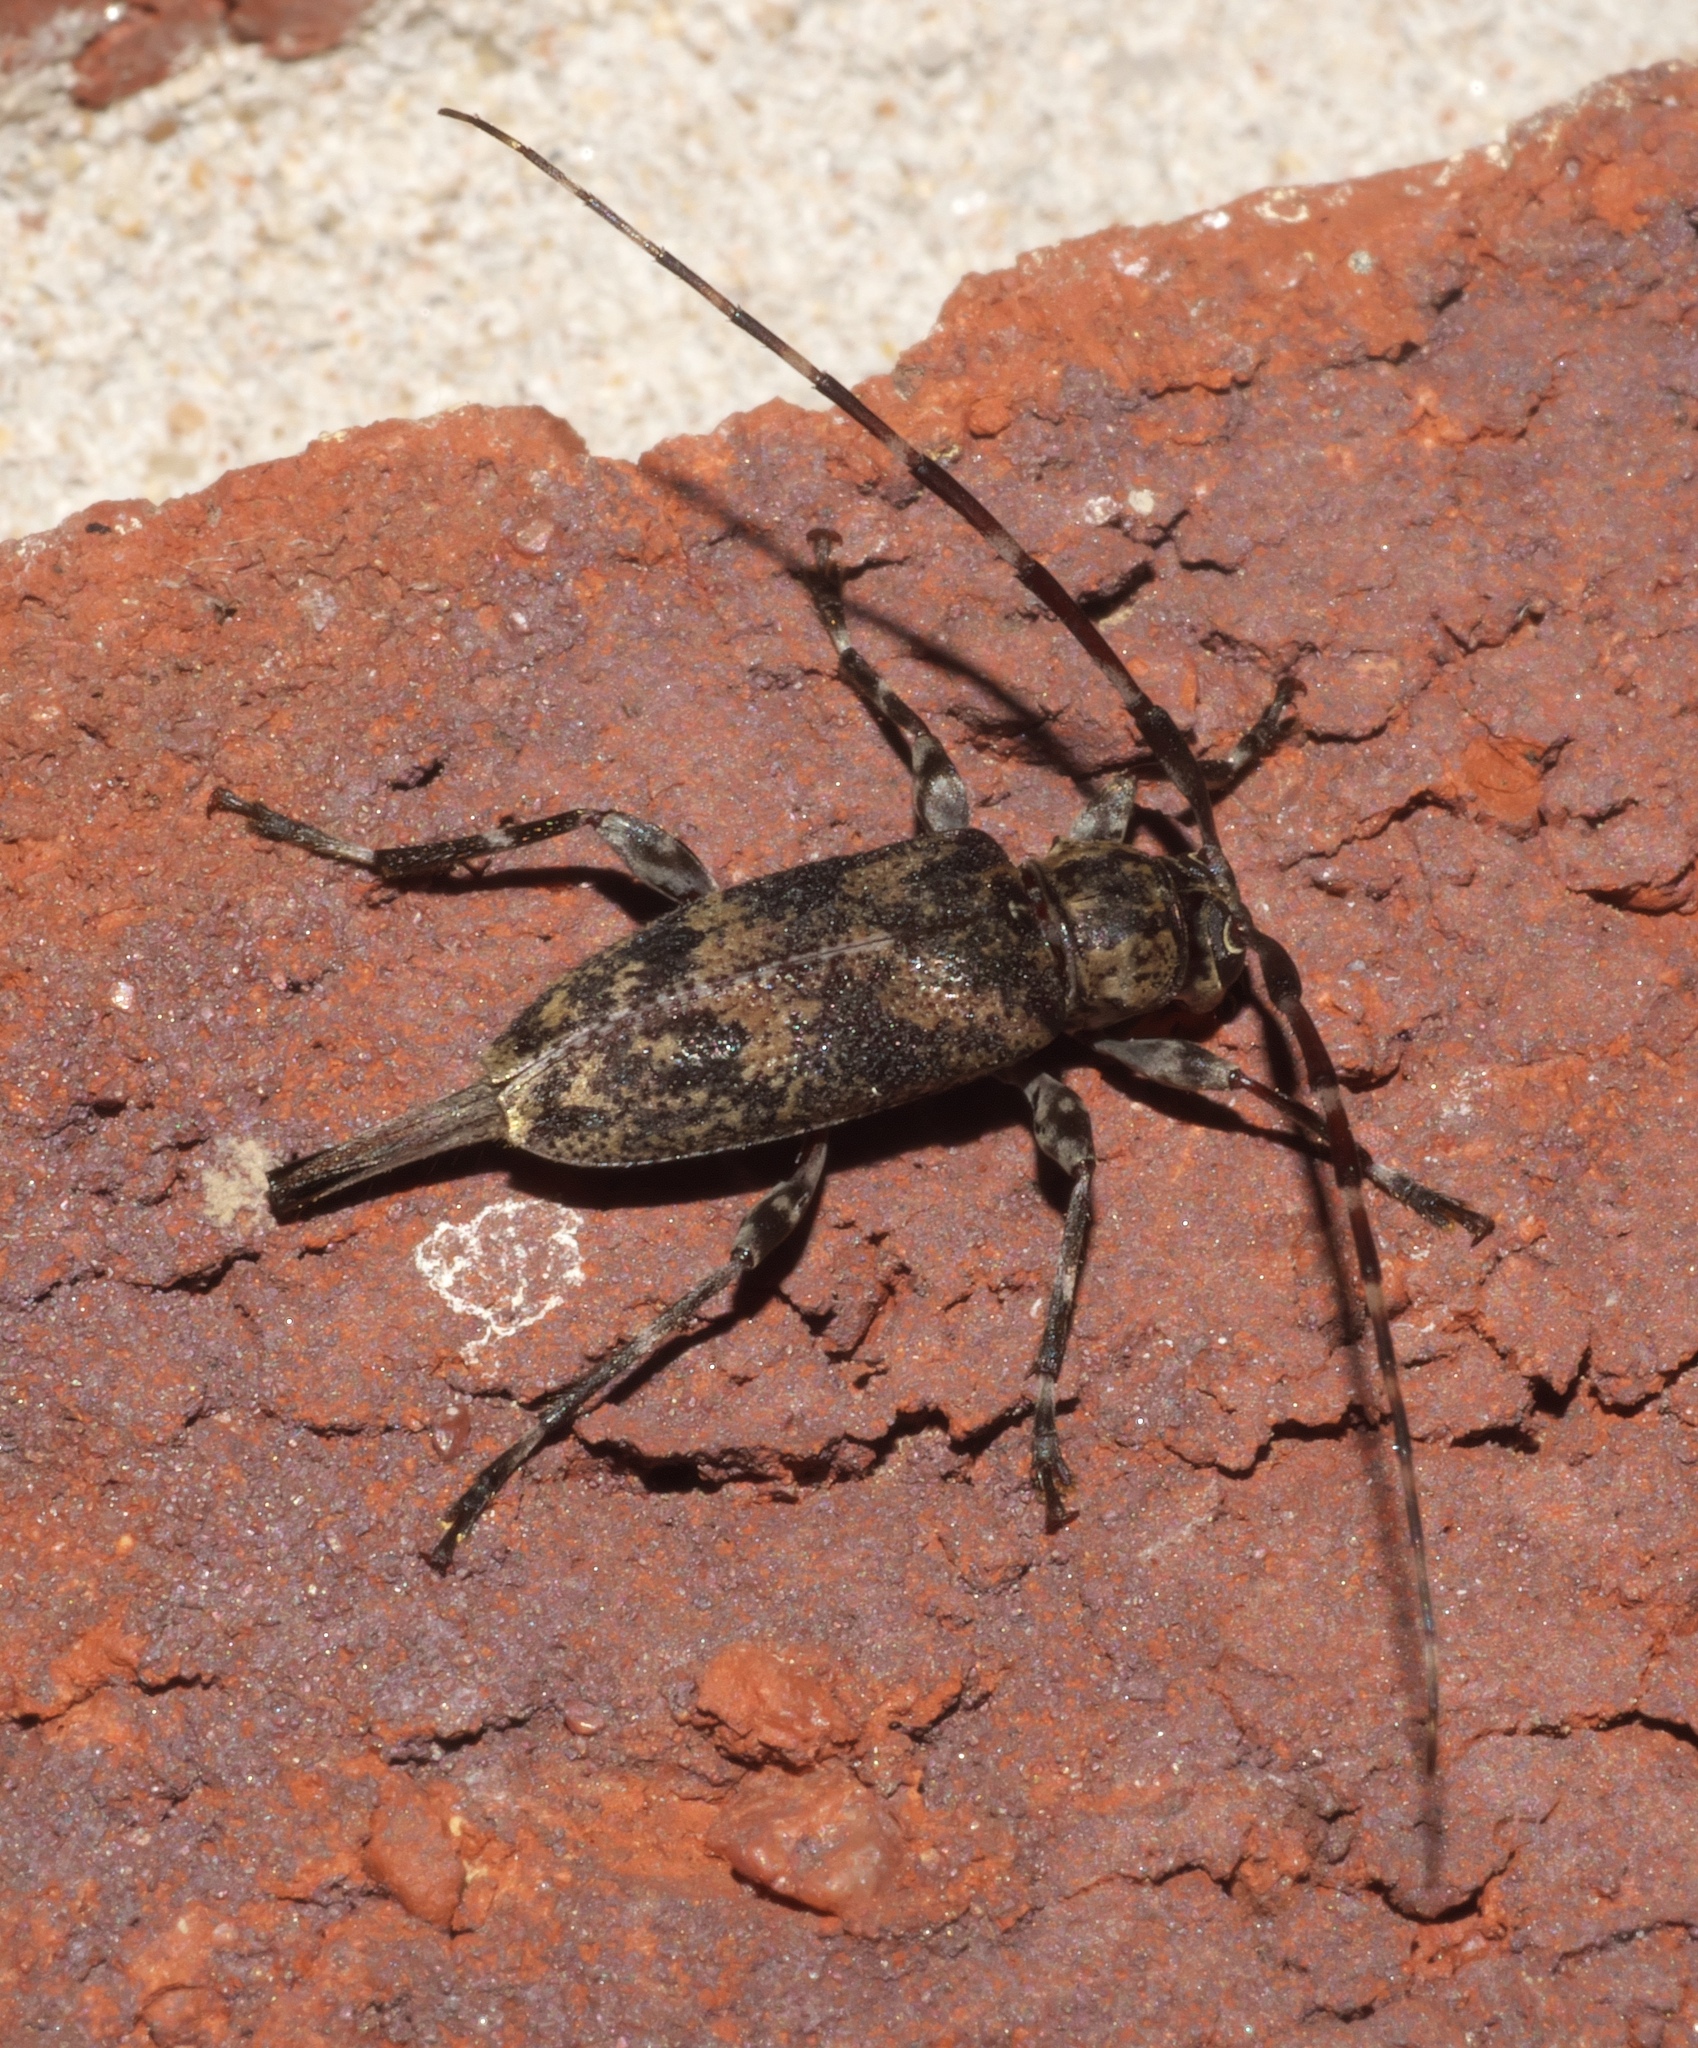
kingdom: Animalia
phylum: Arthropoda
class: Insecta
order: Coleoptera
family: Cerambycidae
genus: Graphisurus
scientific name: Graphisurus fasciatus
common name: Banded graphisurus
